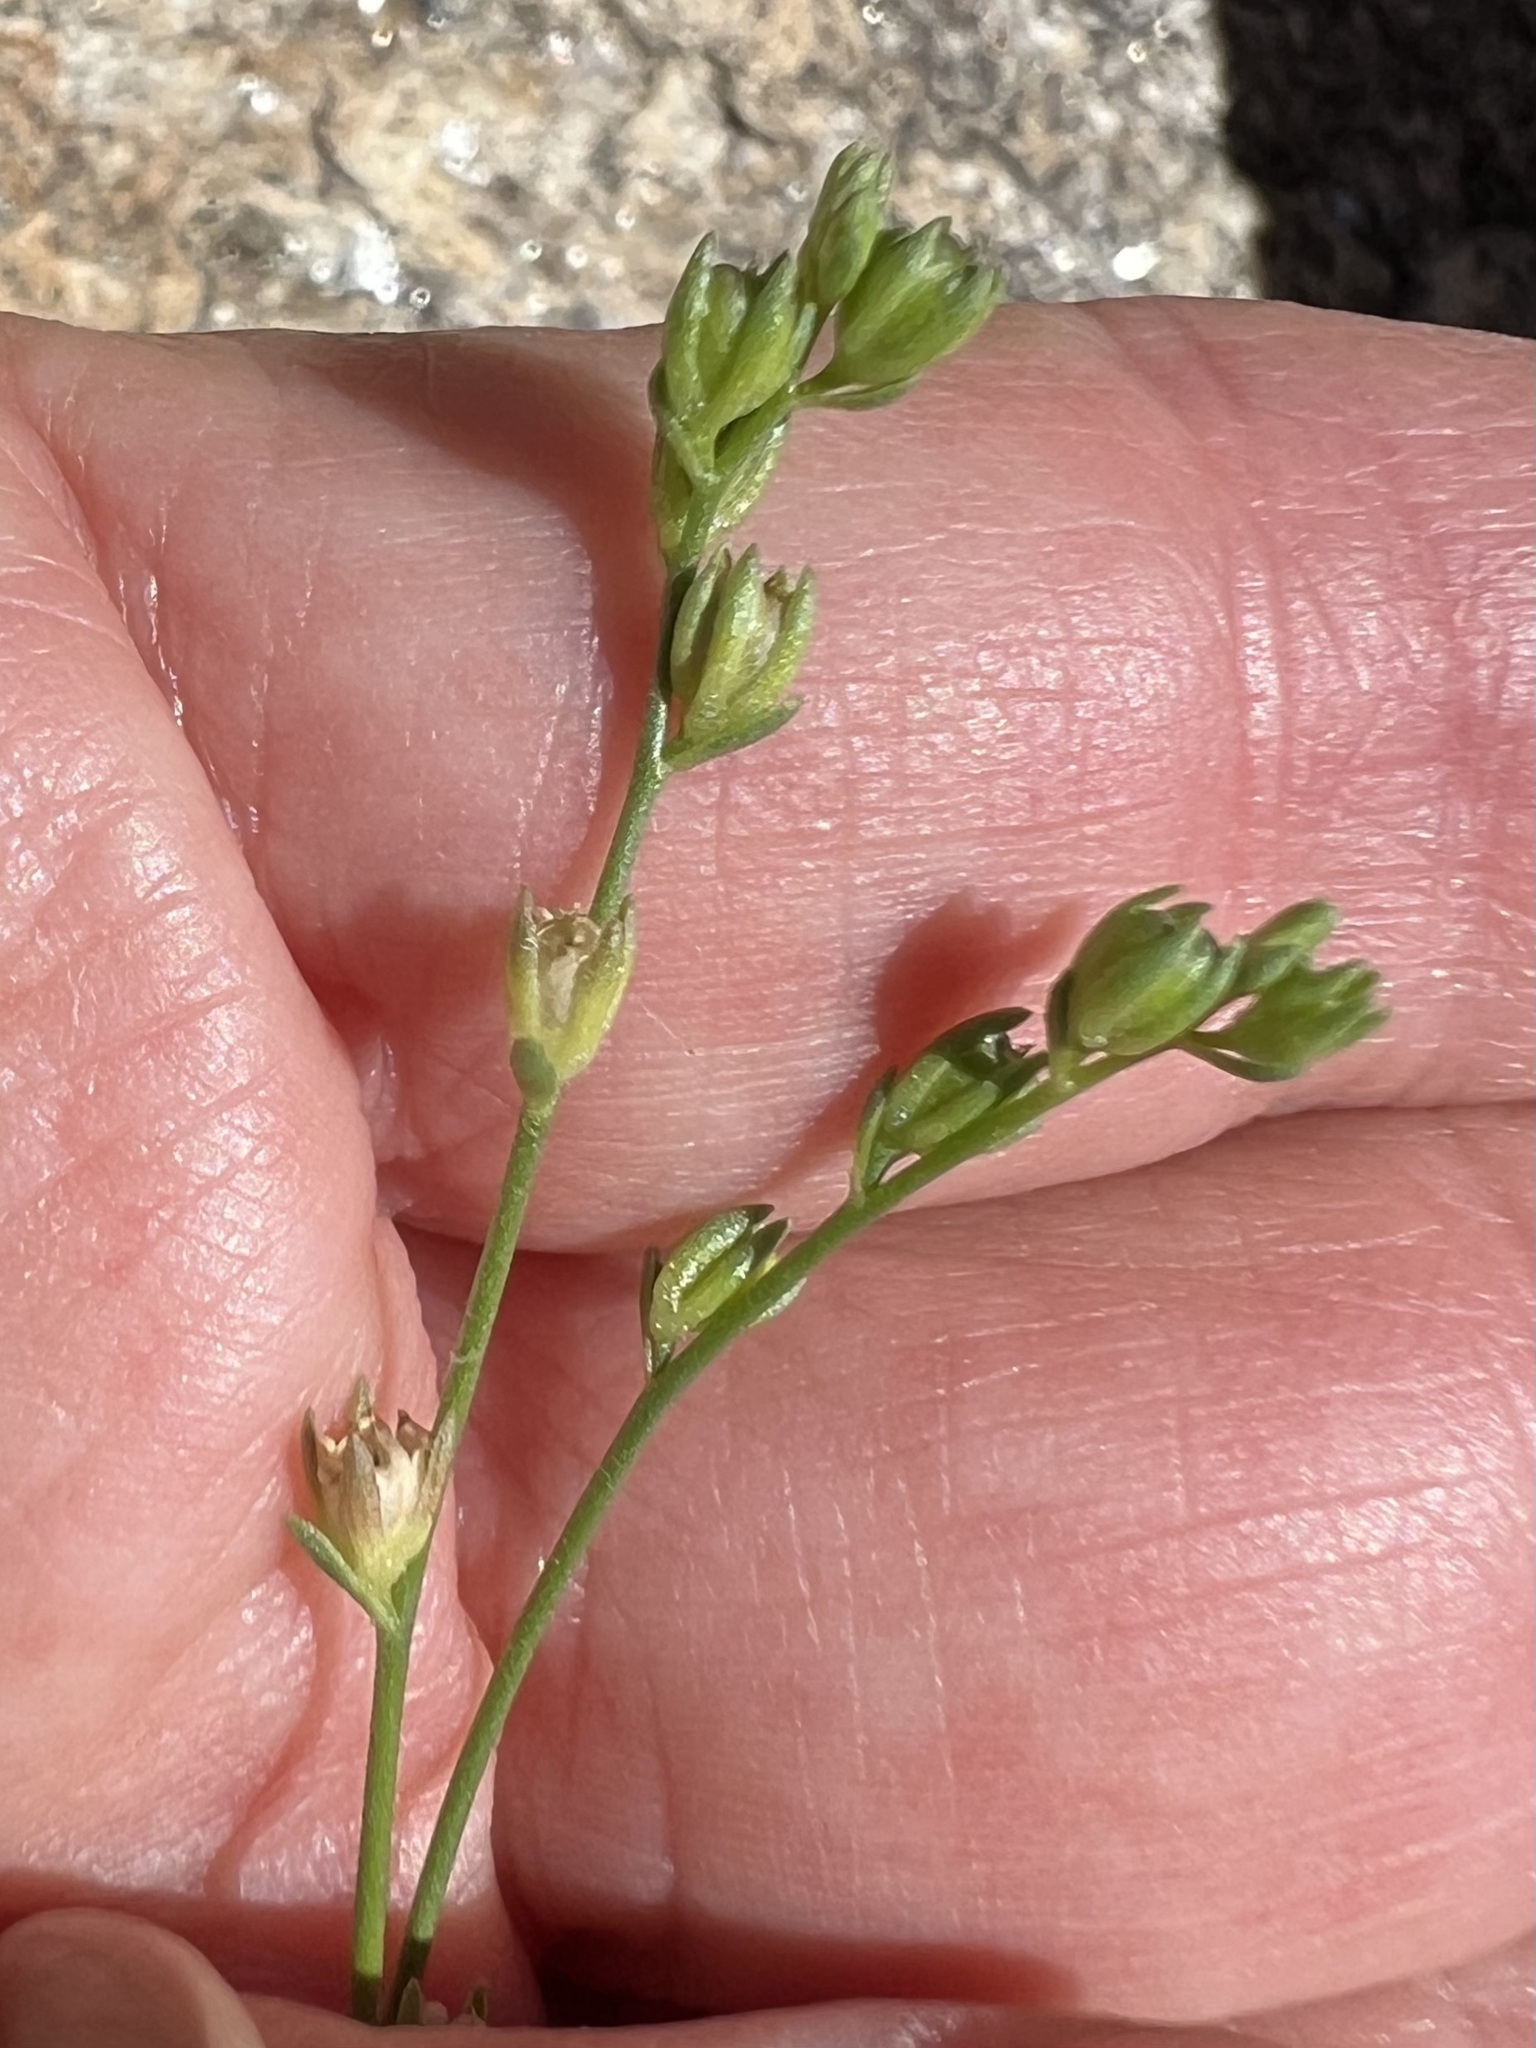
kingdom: Plantae
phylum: Tracheophyta
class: Magnoliopsida
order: Lamiales
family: Plantaginaceae
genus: Nuttallanthus
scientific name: Nuttallanthus texanus
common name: Texas toadflax
